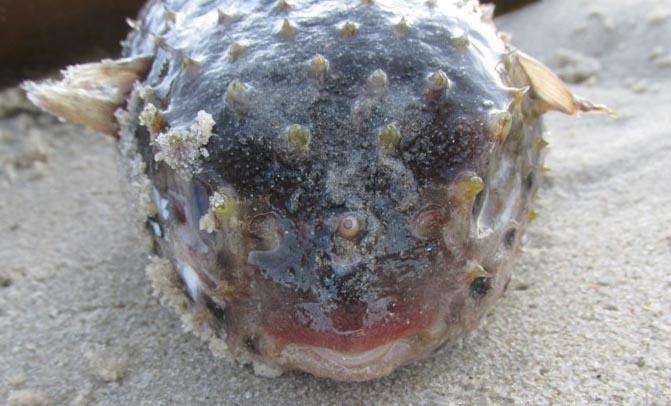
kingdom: Animalia
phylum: Chordata
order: Tetraodontiformes
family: Diodontidae
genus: Cyclichthys
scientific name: Cyclichthys orbicularis
